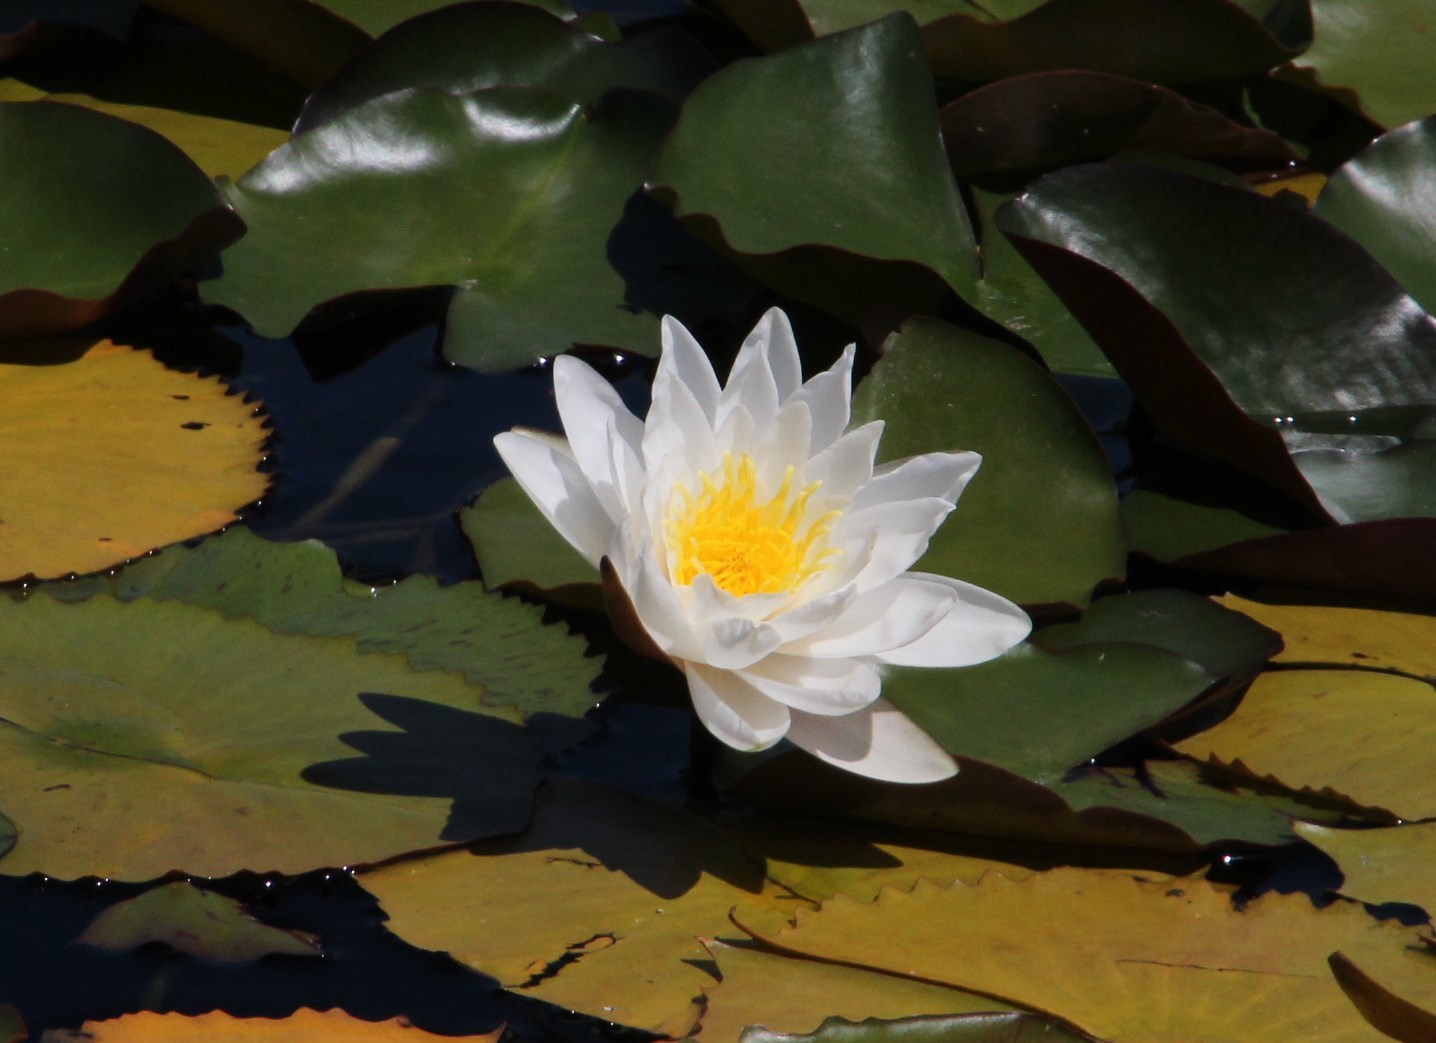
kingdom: Plantae
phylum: Tracheophyta
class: Magnoliopsida
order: Nymphaeales
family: Nymphaeaceae
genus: Nymphaea
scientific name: Nymphaea alba
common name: White water-lily
